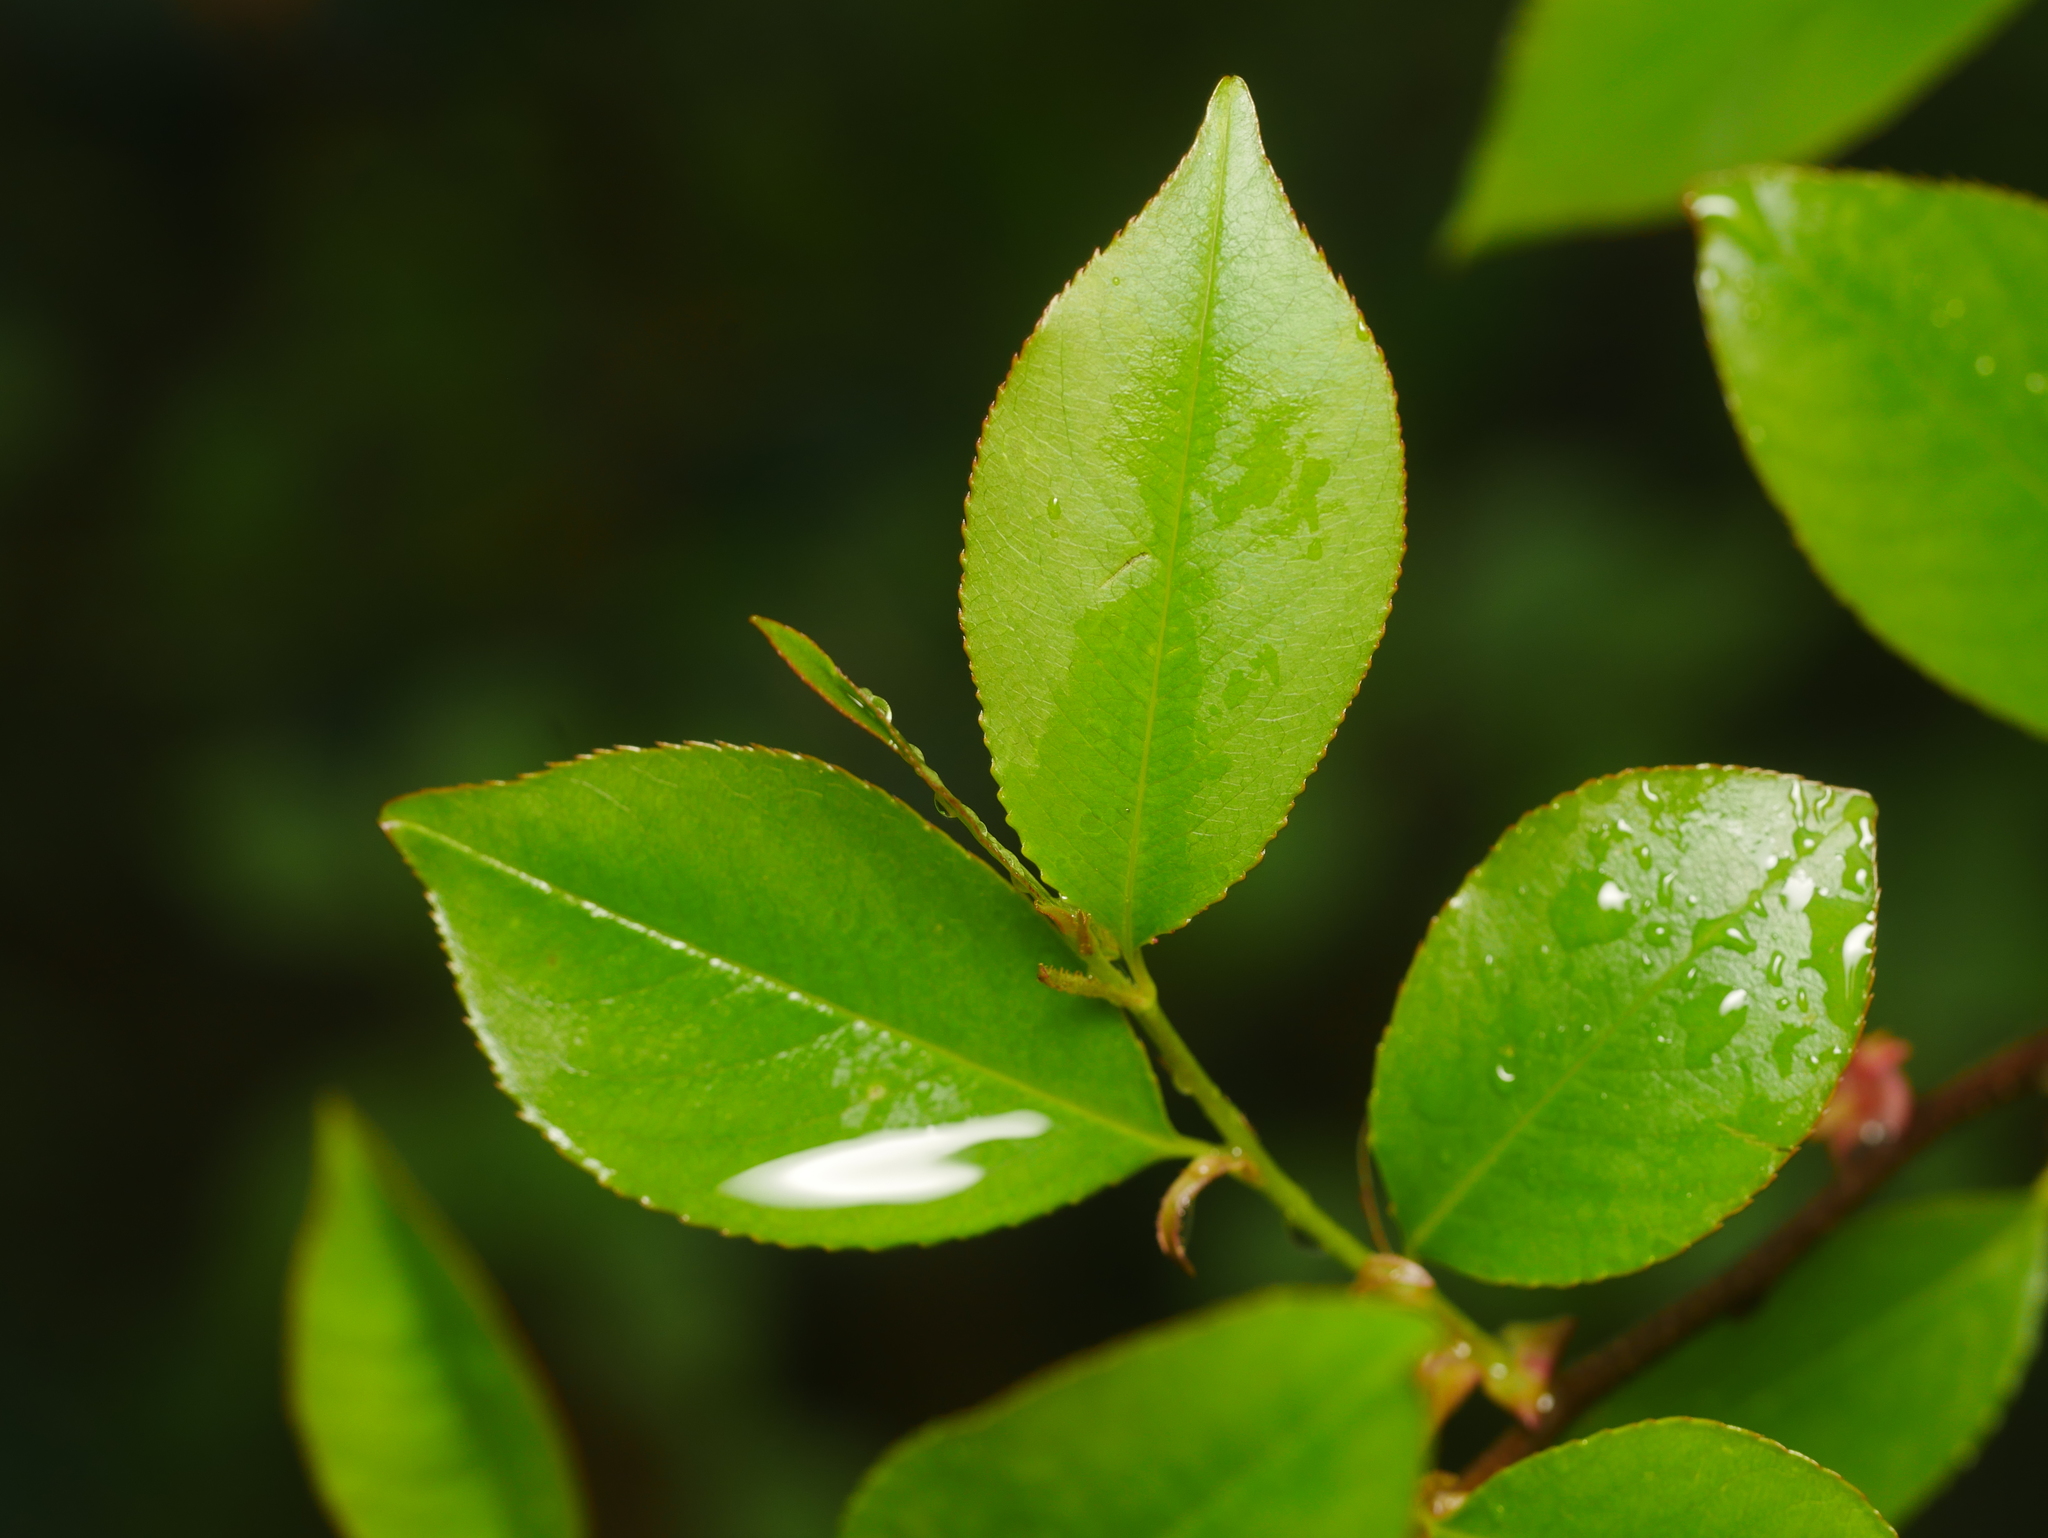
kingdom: Plantae
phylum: Tracheophyta
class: Magnoliopsida
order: Rosales
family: Rosaceae
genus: Prunus
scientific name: Prunus serotina
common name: Black cherry
